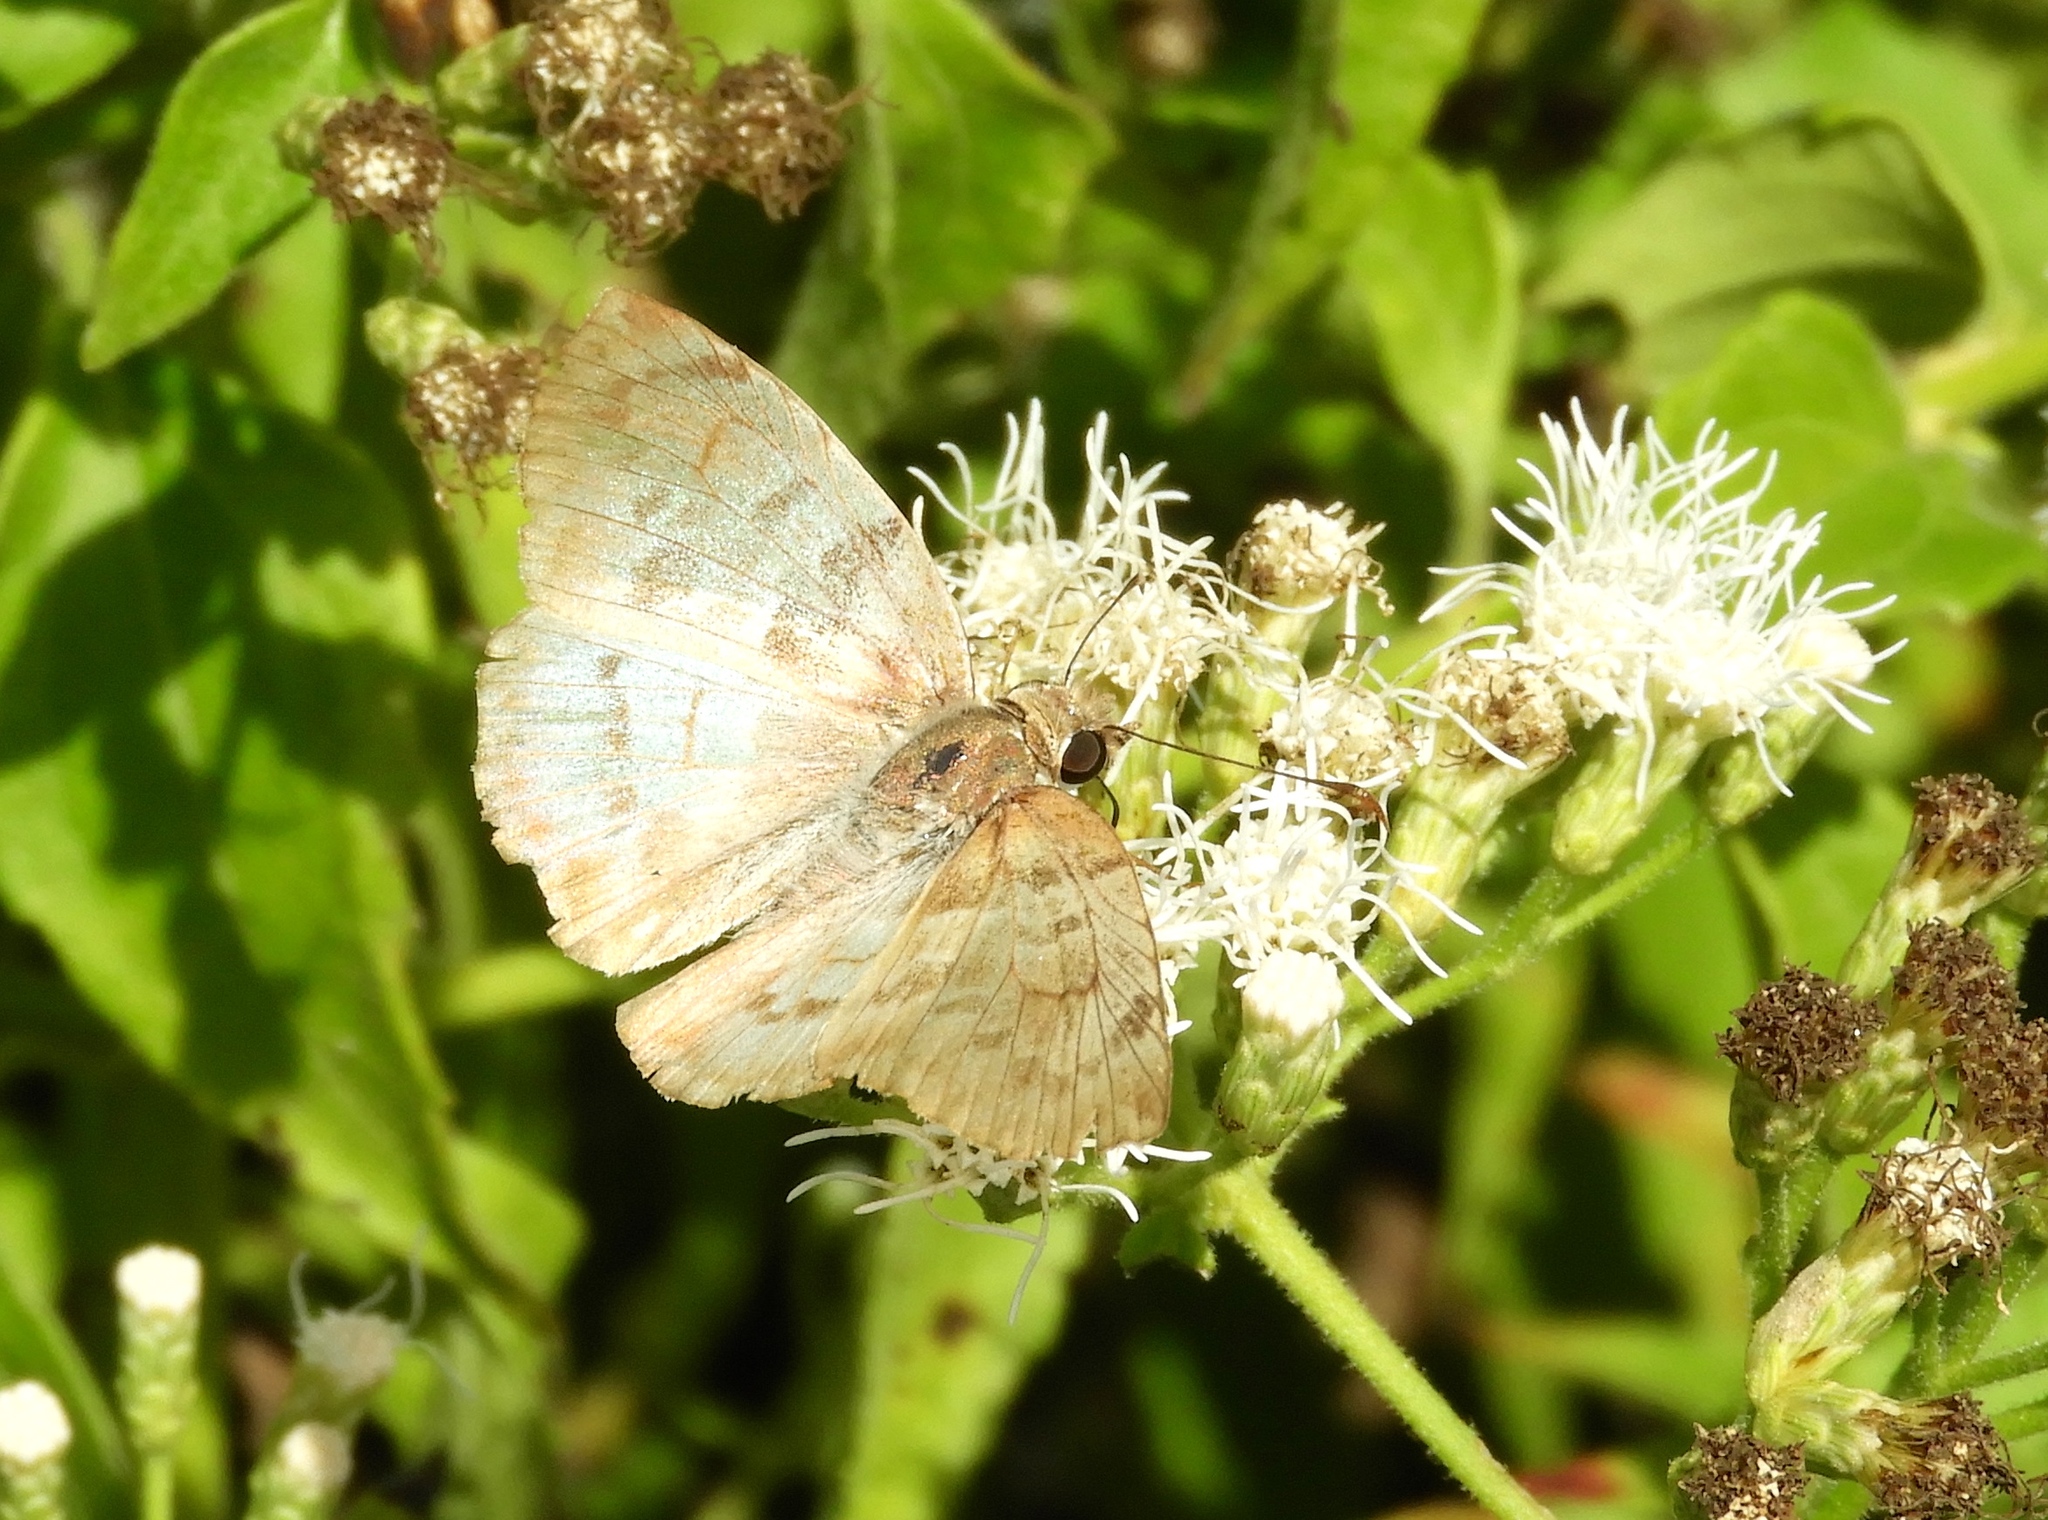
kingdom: Animalia
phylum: Arthropoda
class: Insecta
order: Lepidoptera
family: Hesperiidae
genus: Mylon
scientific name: Mylon pelopidas
